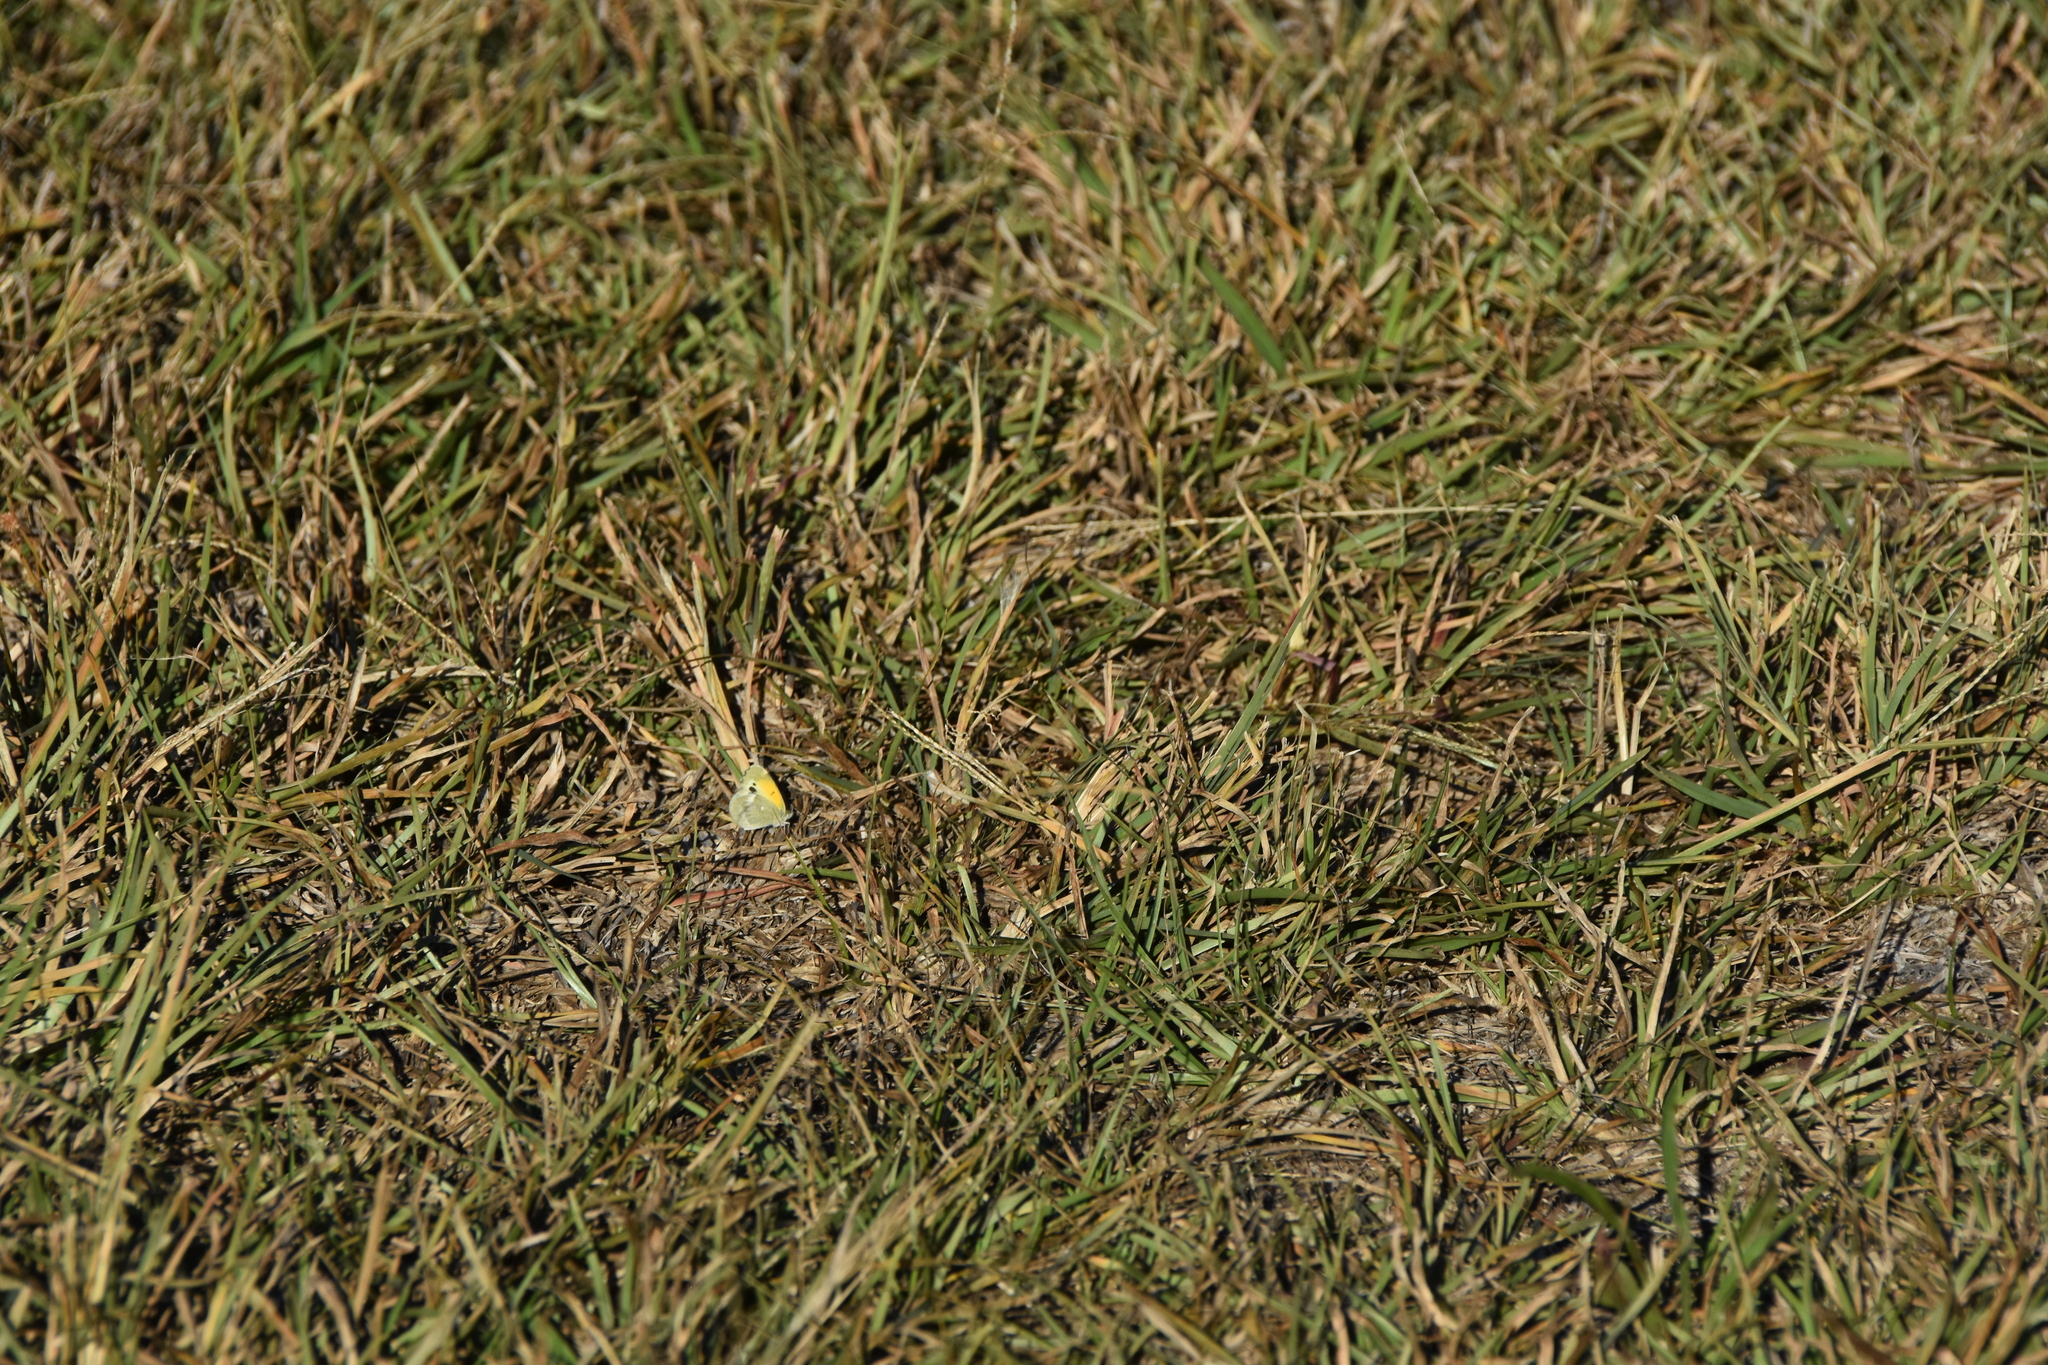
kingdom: Animalia
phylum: Arthropoda
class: Insecta
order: Lepidoptera
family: Pieridae
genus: Nathalis
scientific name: Nathalis iole
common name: Dainty sulphur
